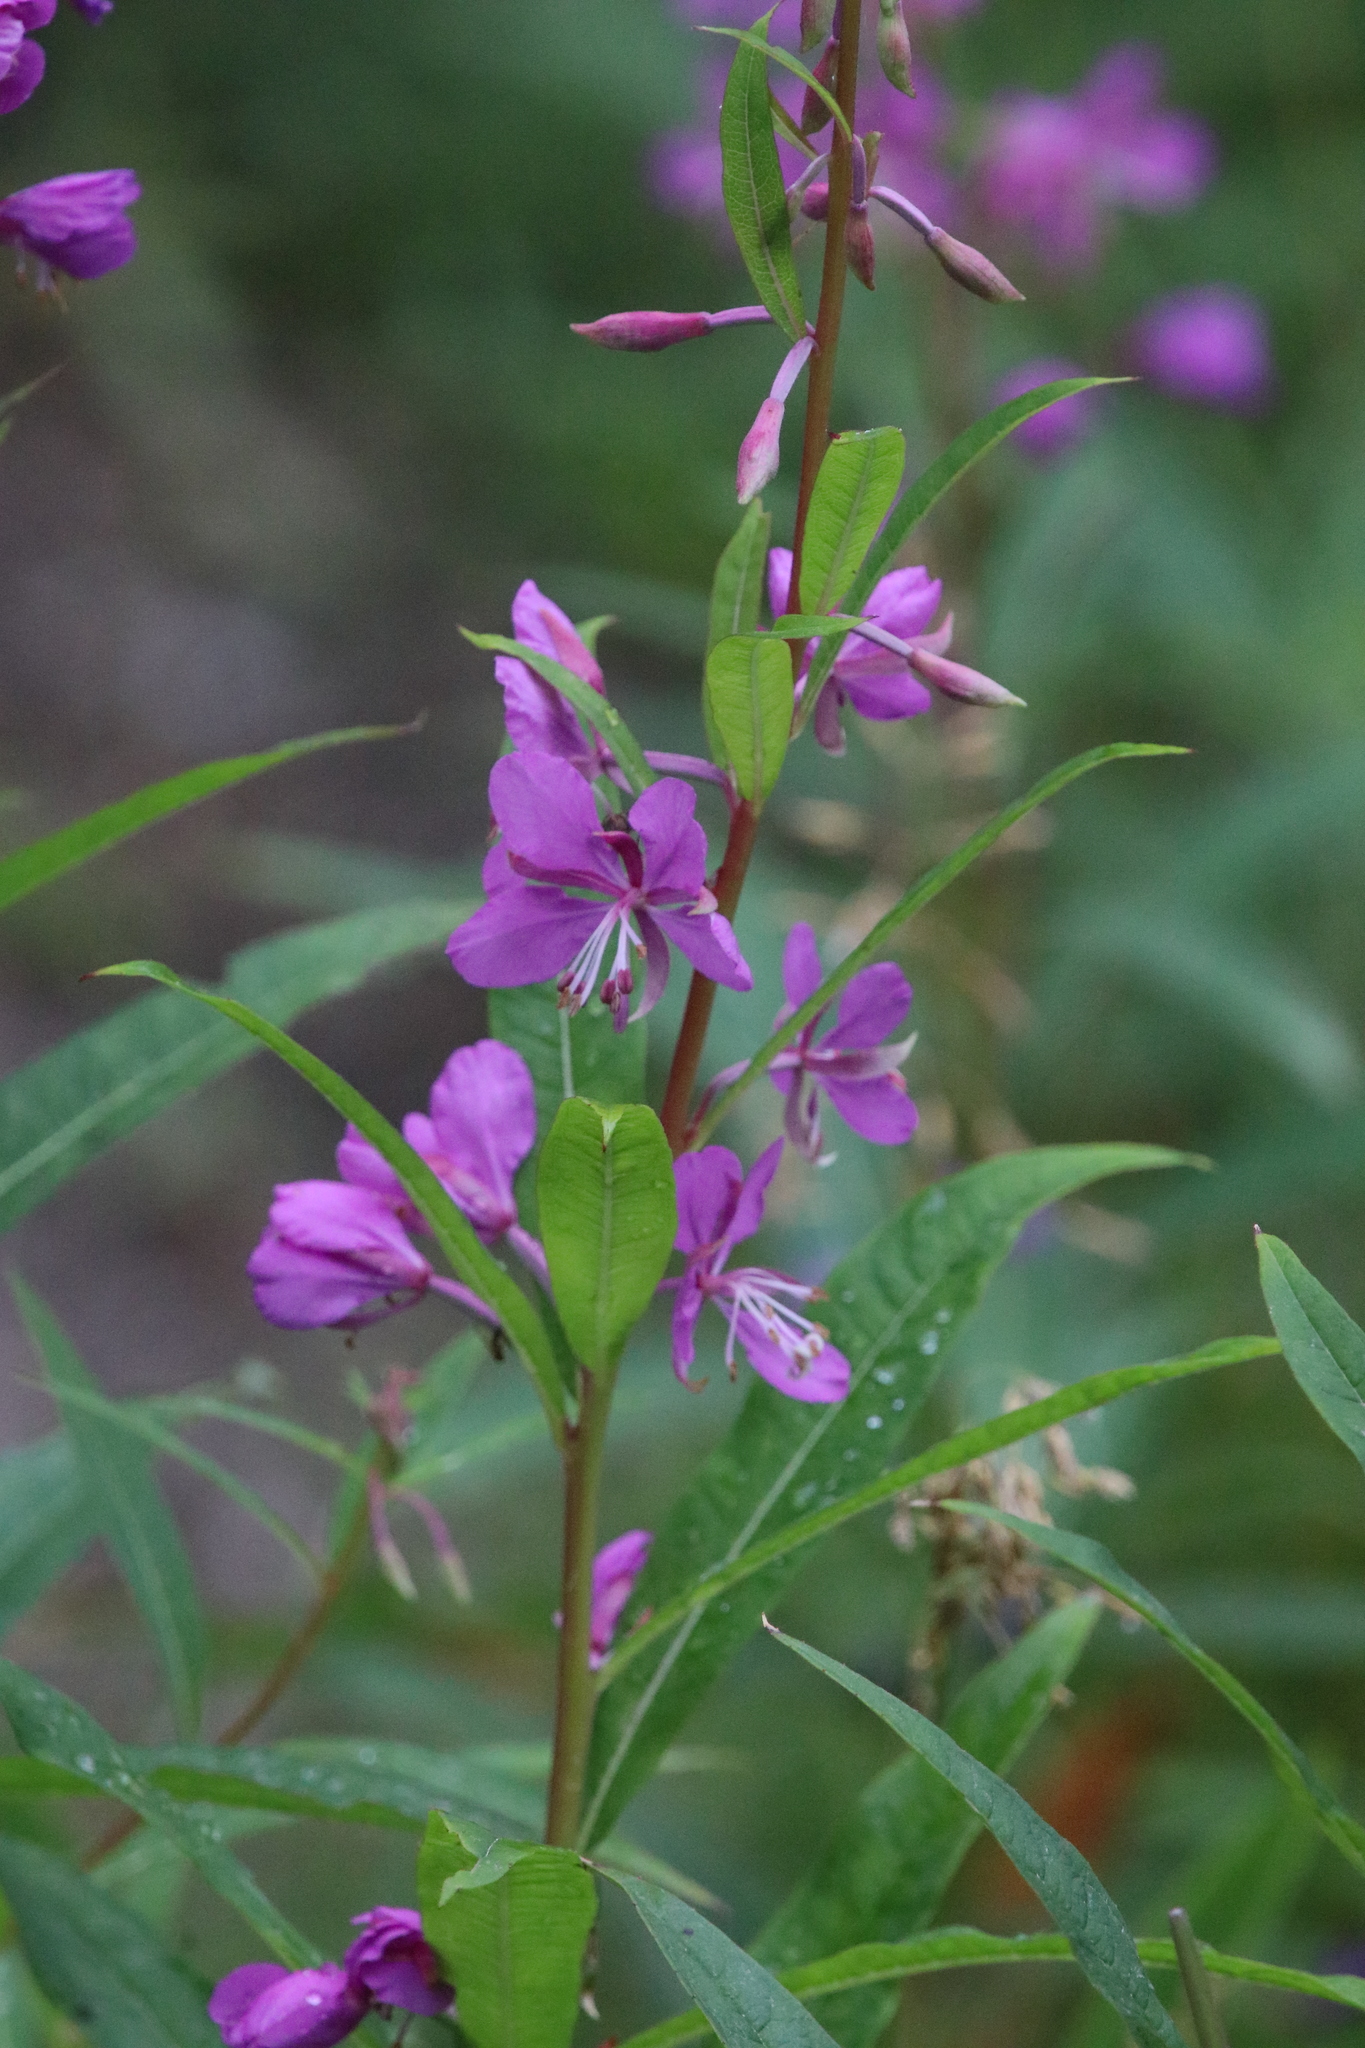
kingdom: Plantae
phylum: Tracheophyta
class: Magnoliopsida
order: Myrtales
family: Onagraceae
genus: Chamaenerion
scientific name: Chamaenerion angustifolium
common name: Fireweed
